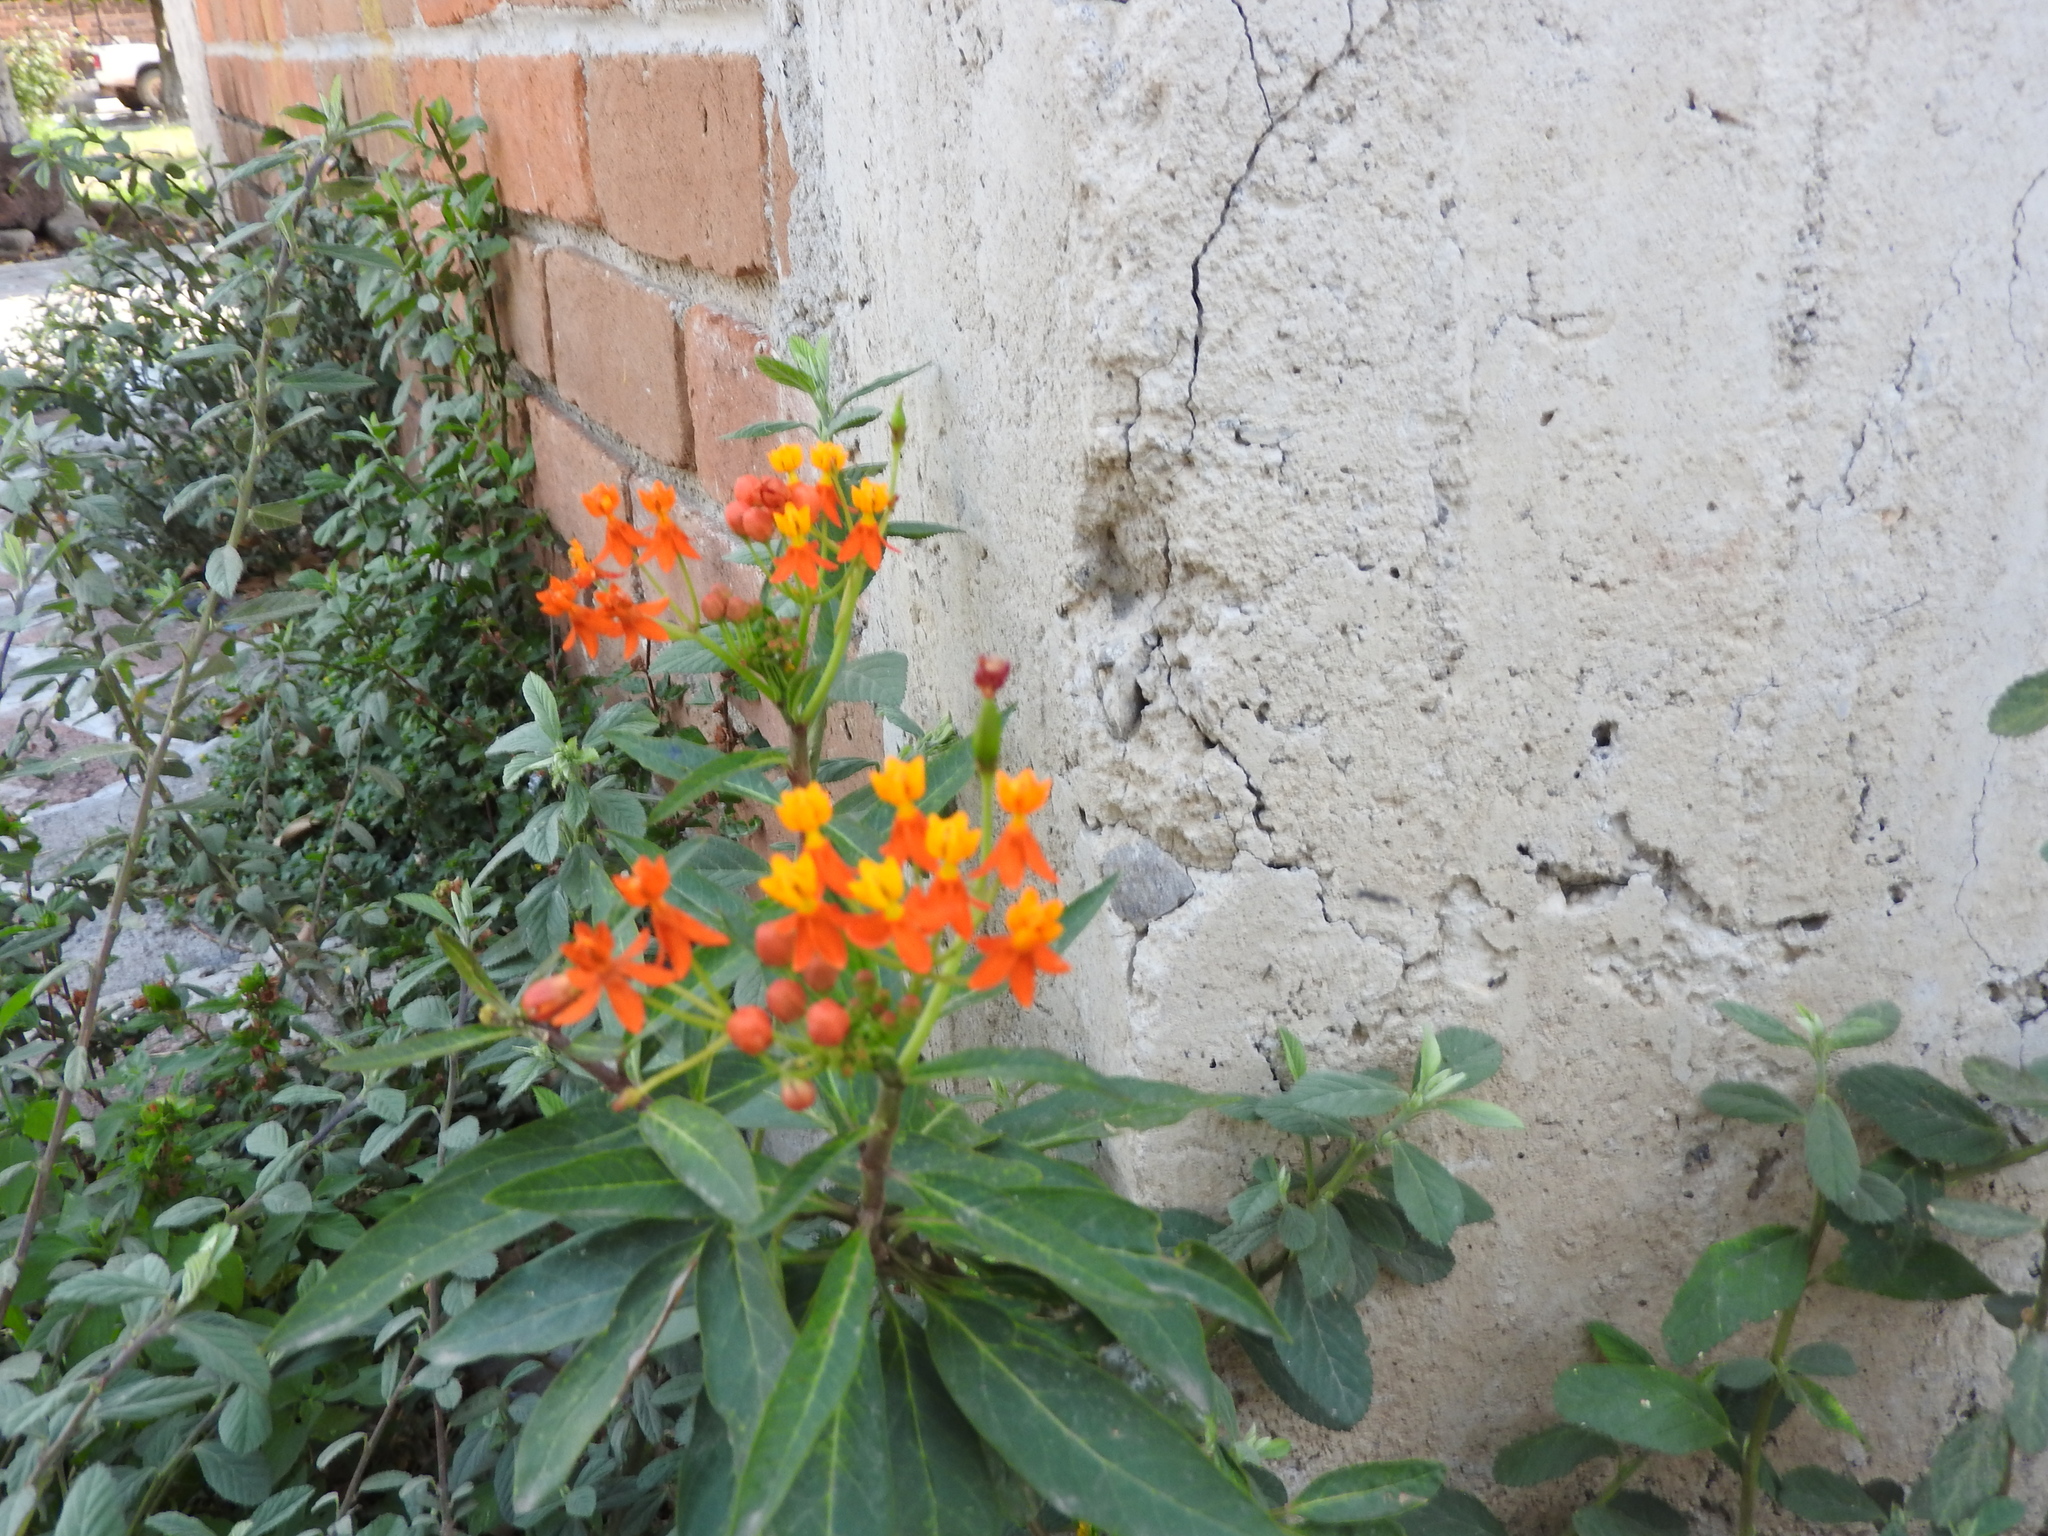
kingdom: Plantae
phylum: Tracheophyta
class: Magnoliopsida
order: Gentianales
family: Apocynaceae
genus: Asclepias
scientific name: Asclepias curassavica
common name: Bloodflower
